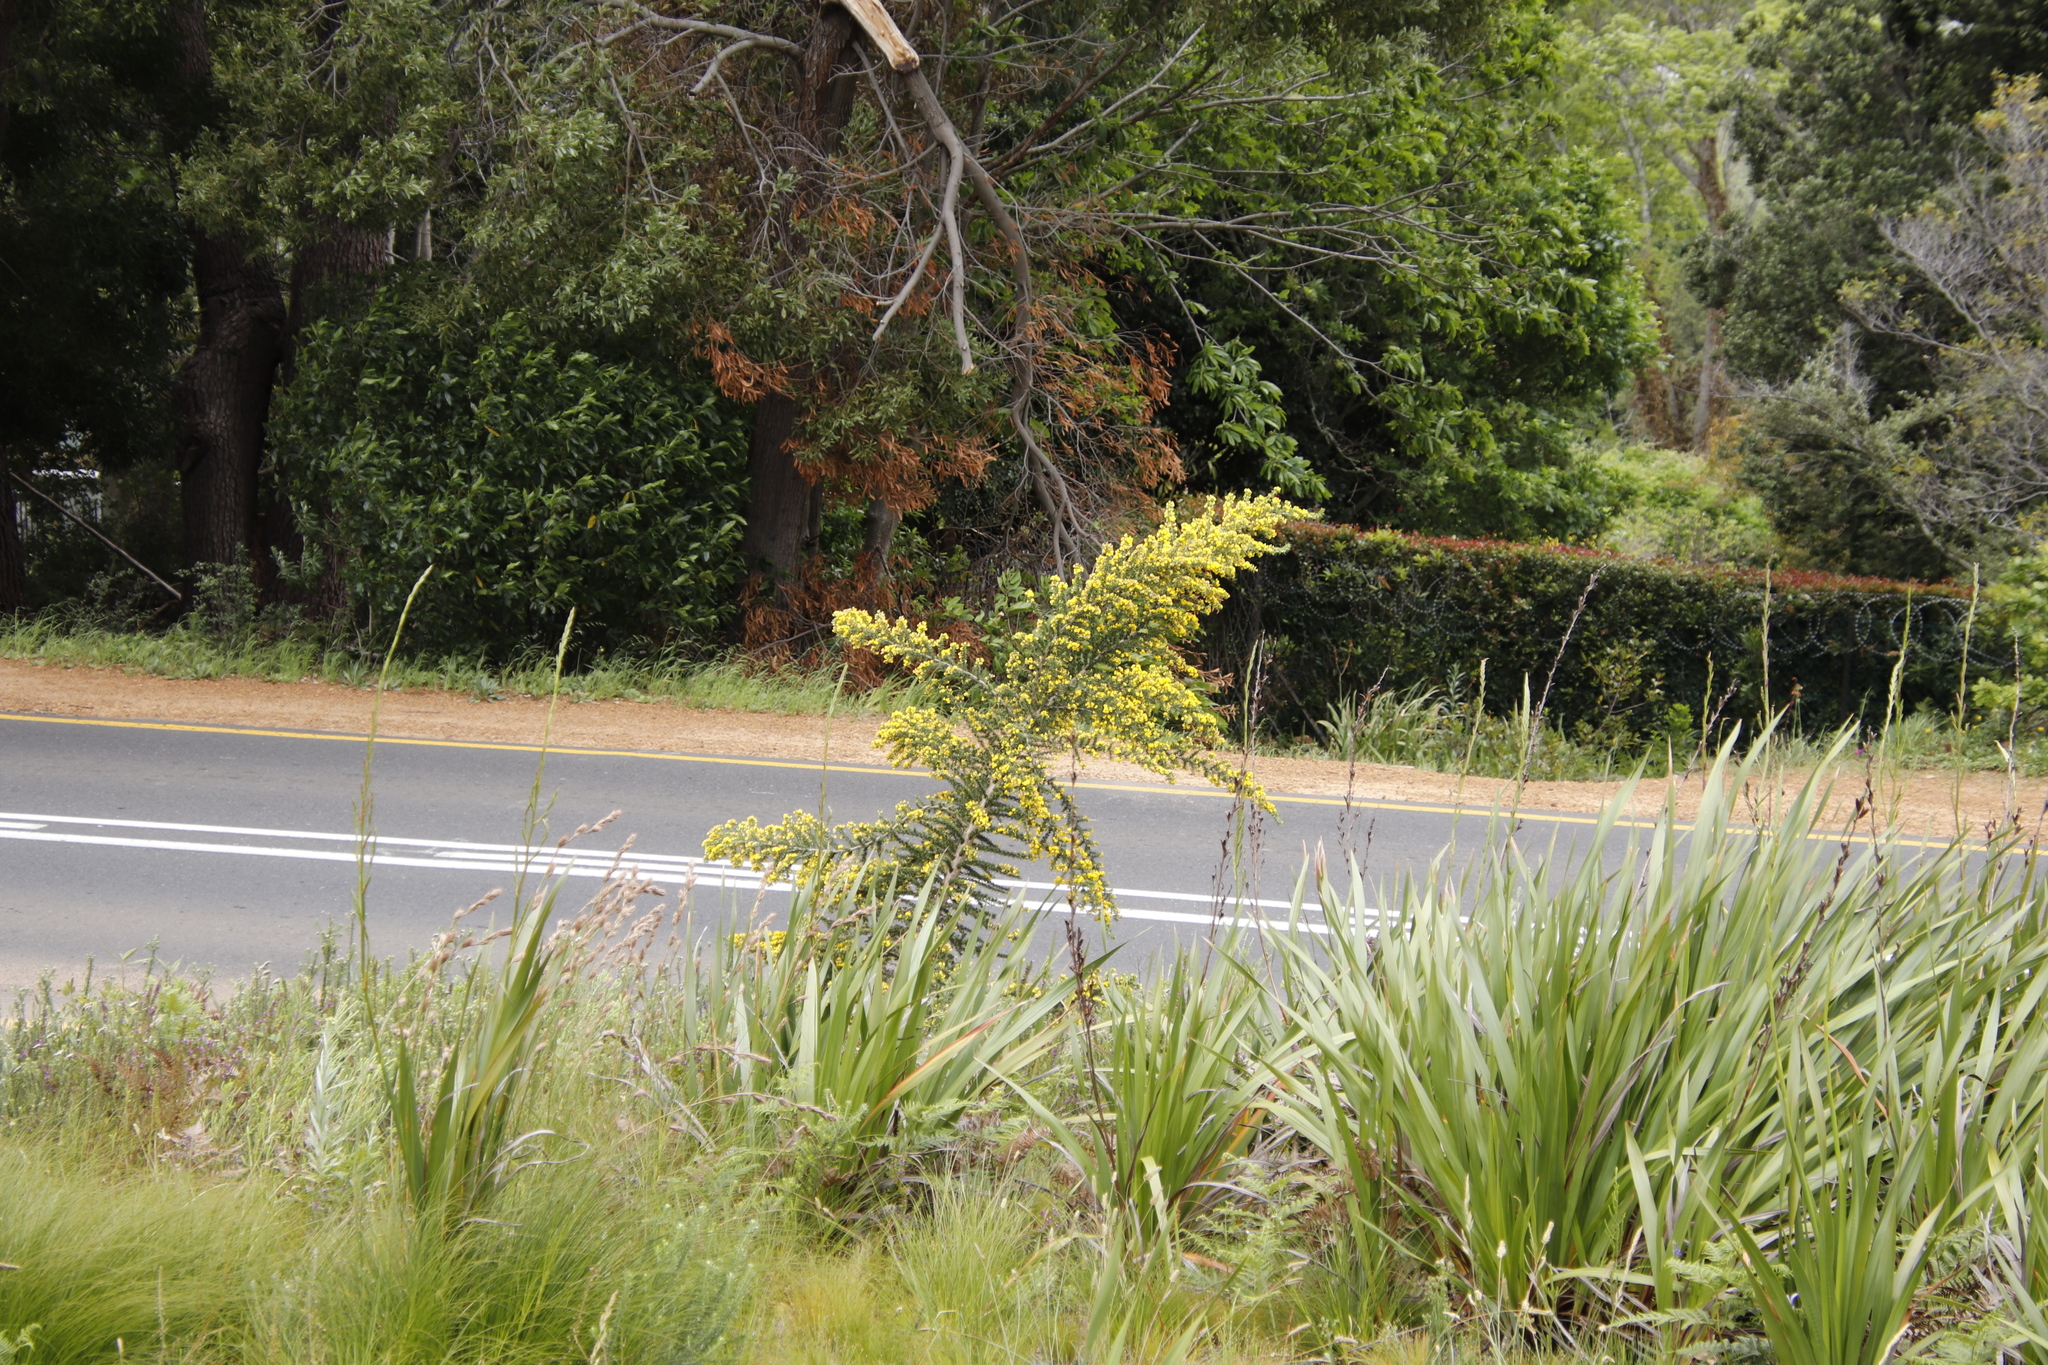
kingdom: Plantae
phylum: Tracheophyta
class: Magnoliopsida
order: Fabales
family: Fabaceae
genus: Aspalathus
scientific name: Aspalathus astroites
